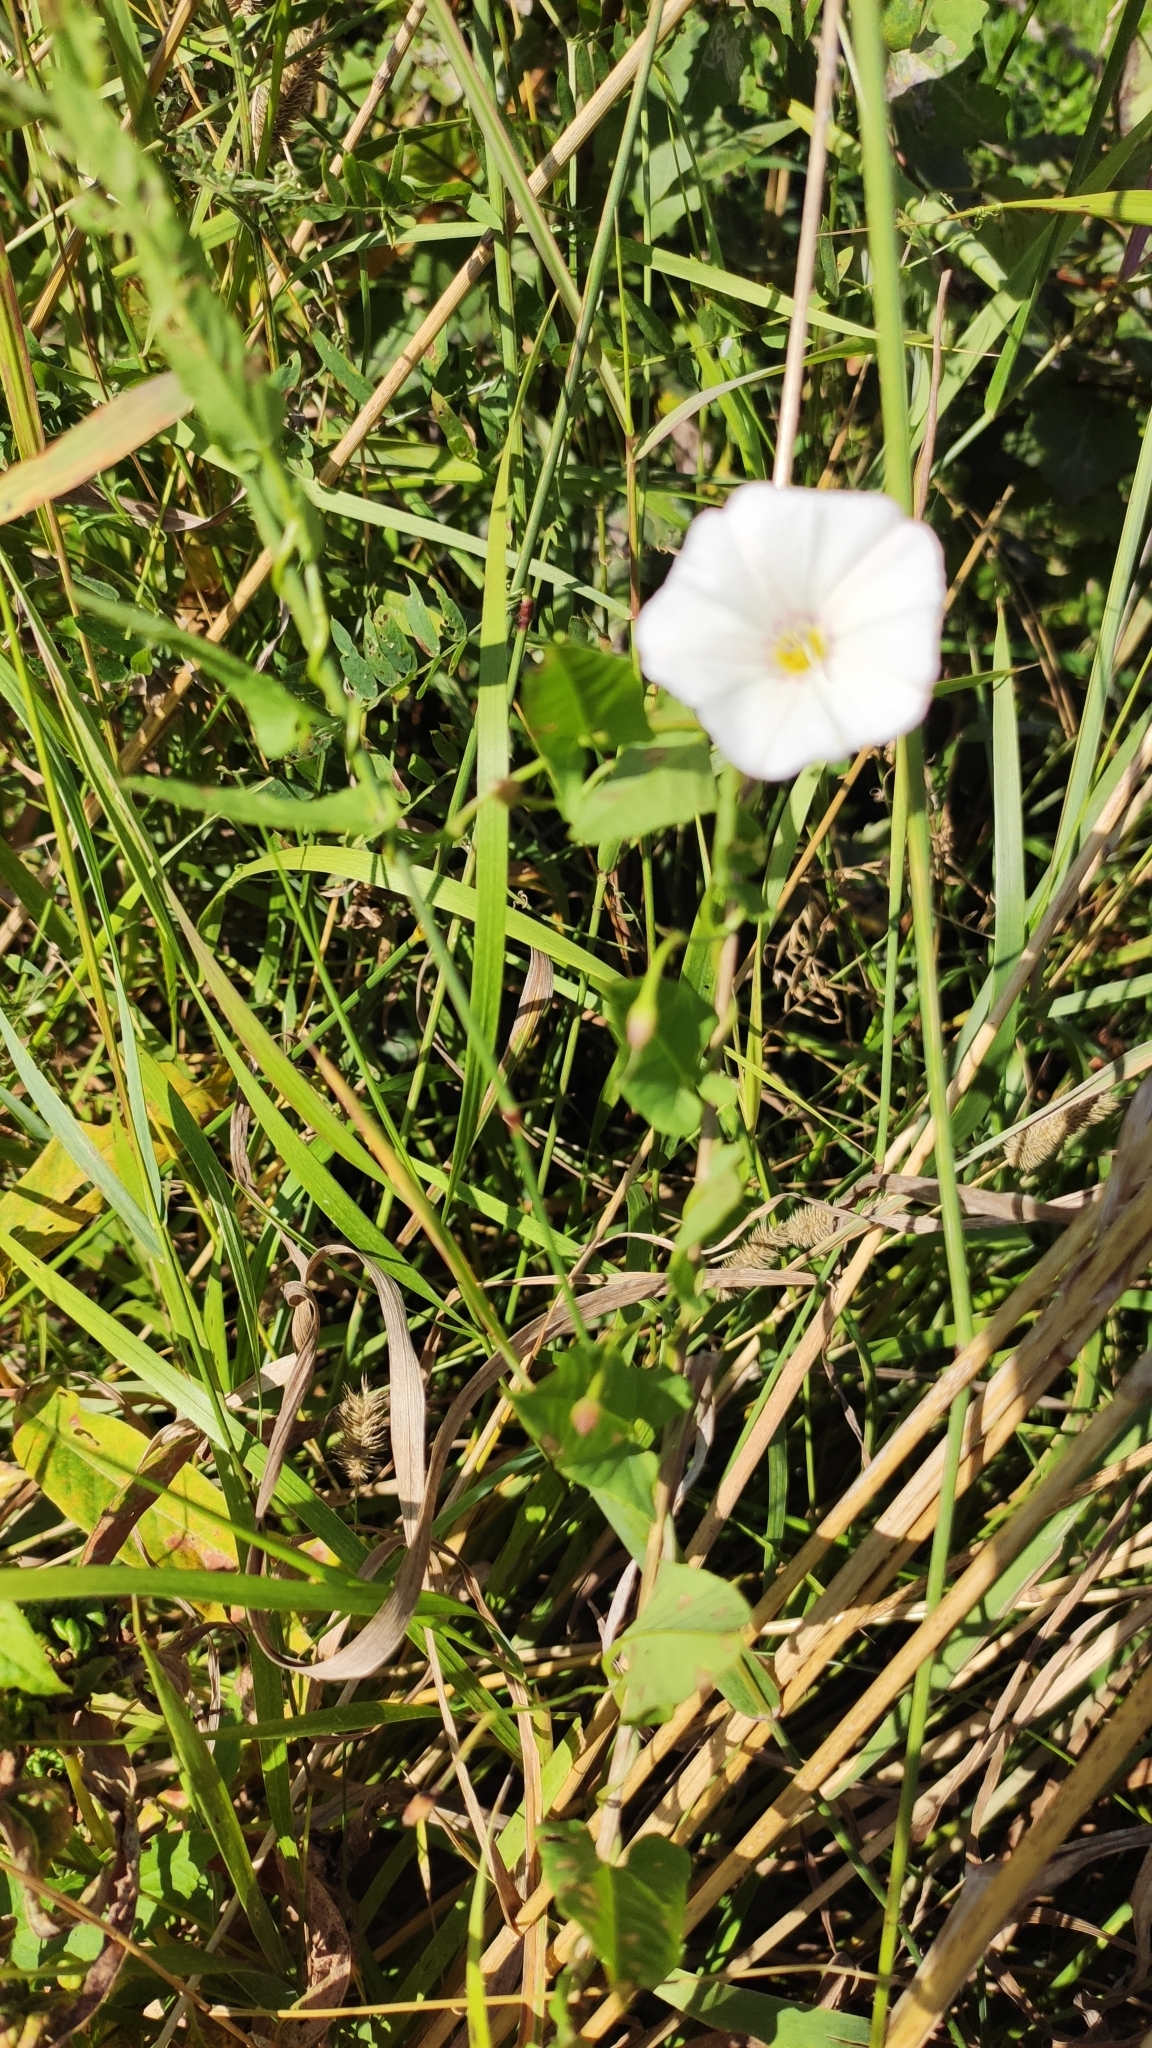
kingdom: Plantae
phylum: Tracheophyta
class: Magnoliopsida
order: Solanales
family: Convolvulaceae
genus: Convolvulus
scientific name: Convolvulus arvensis
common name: Field bindweed
